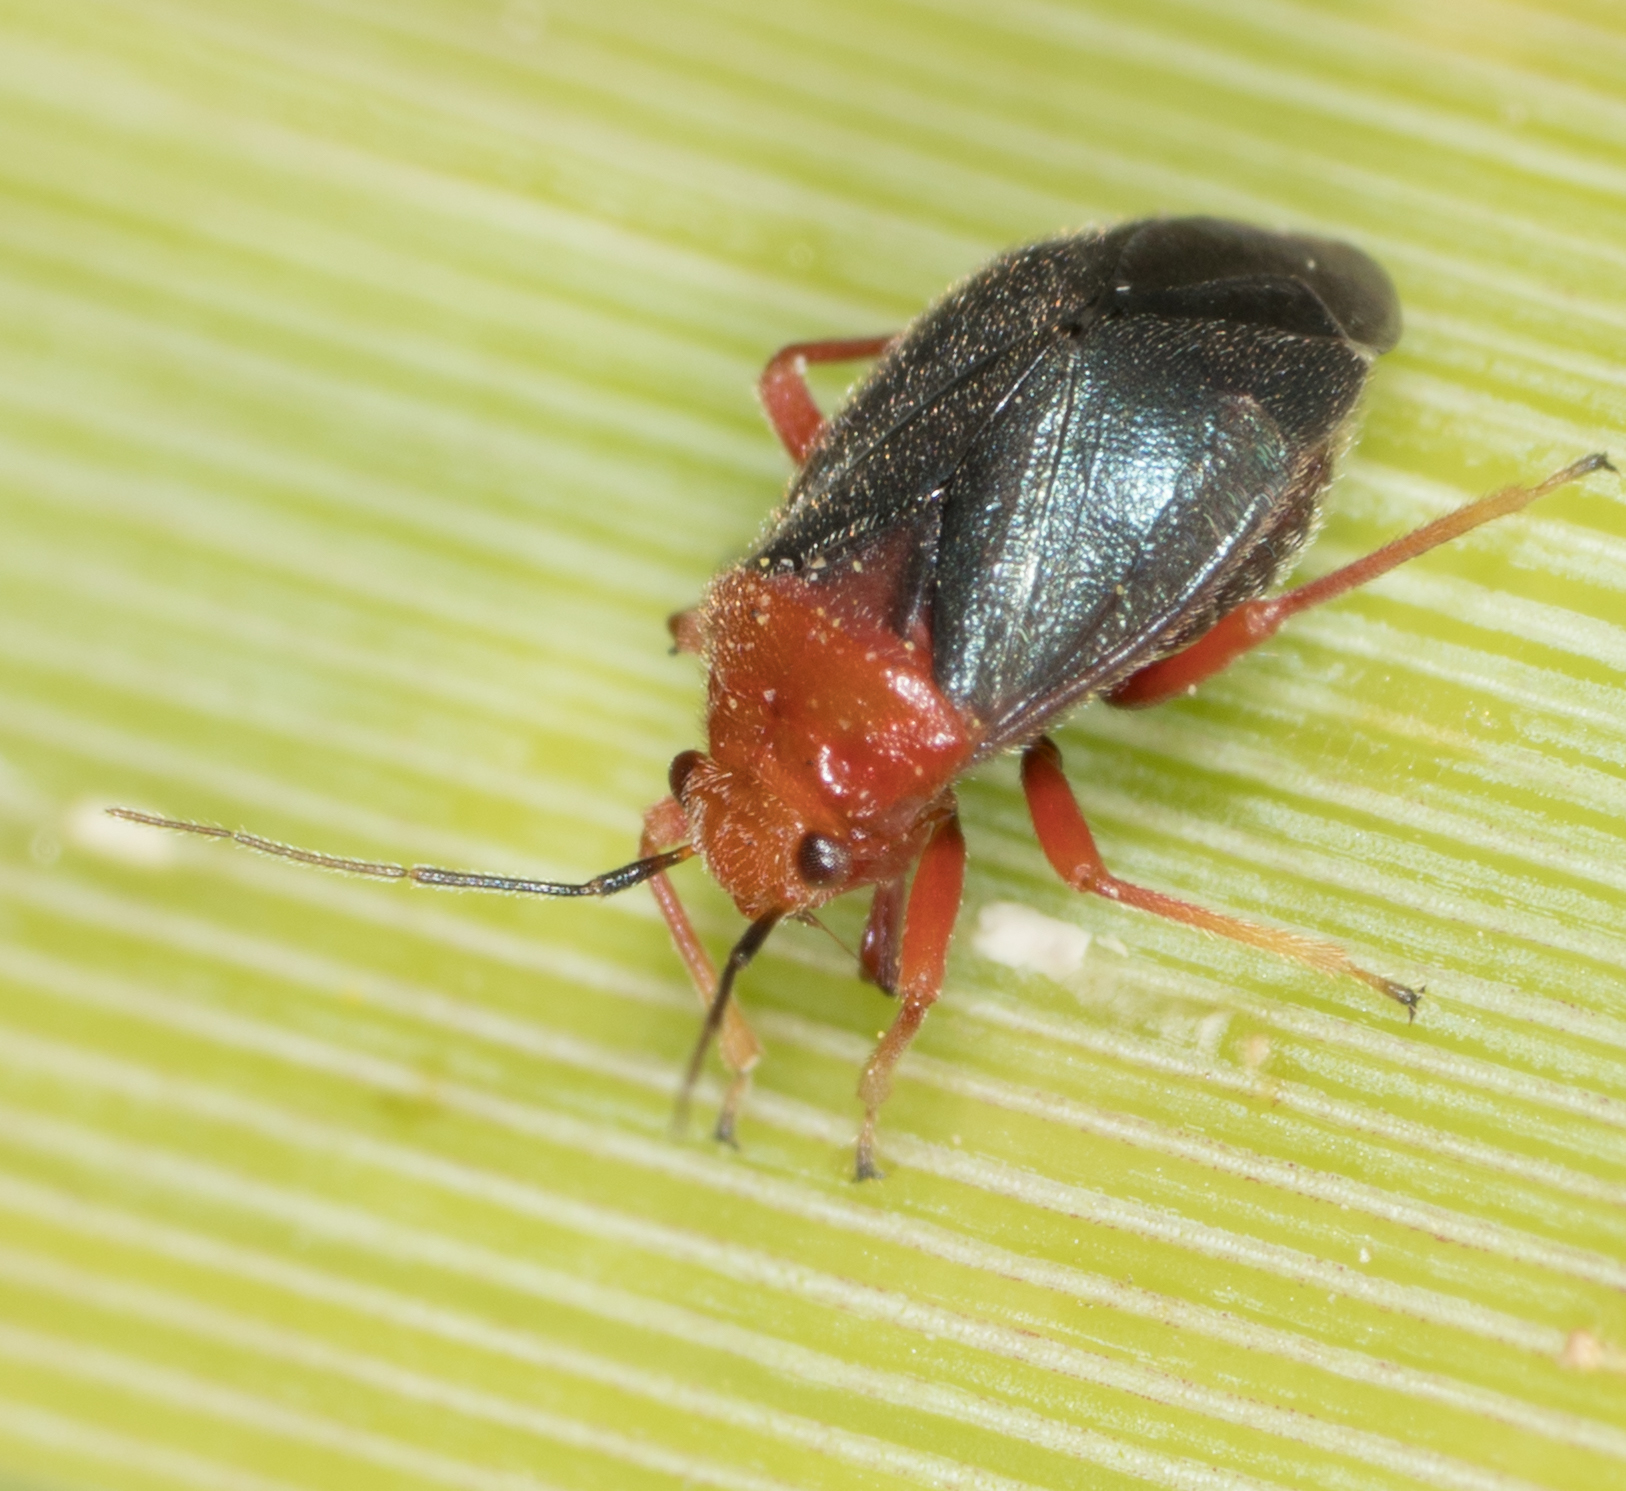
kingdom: Animalia
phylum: Arthropoda
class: Insecta
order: Hemiptera
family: Miridae
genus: Halticotoma
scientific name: Halticotoma valida
